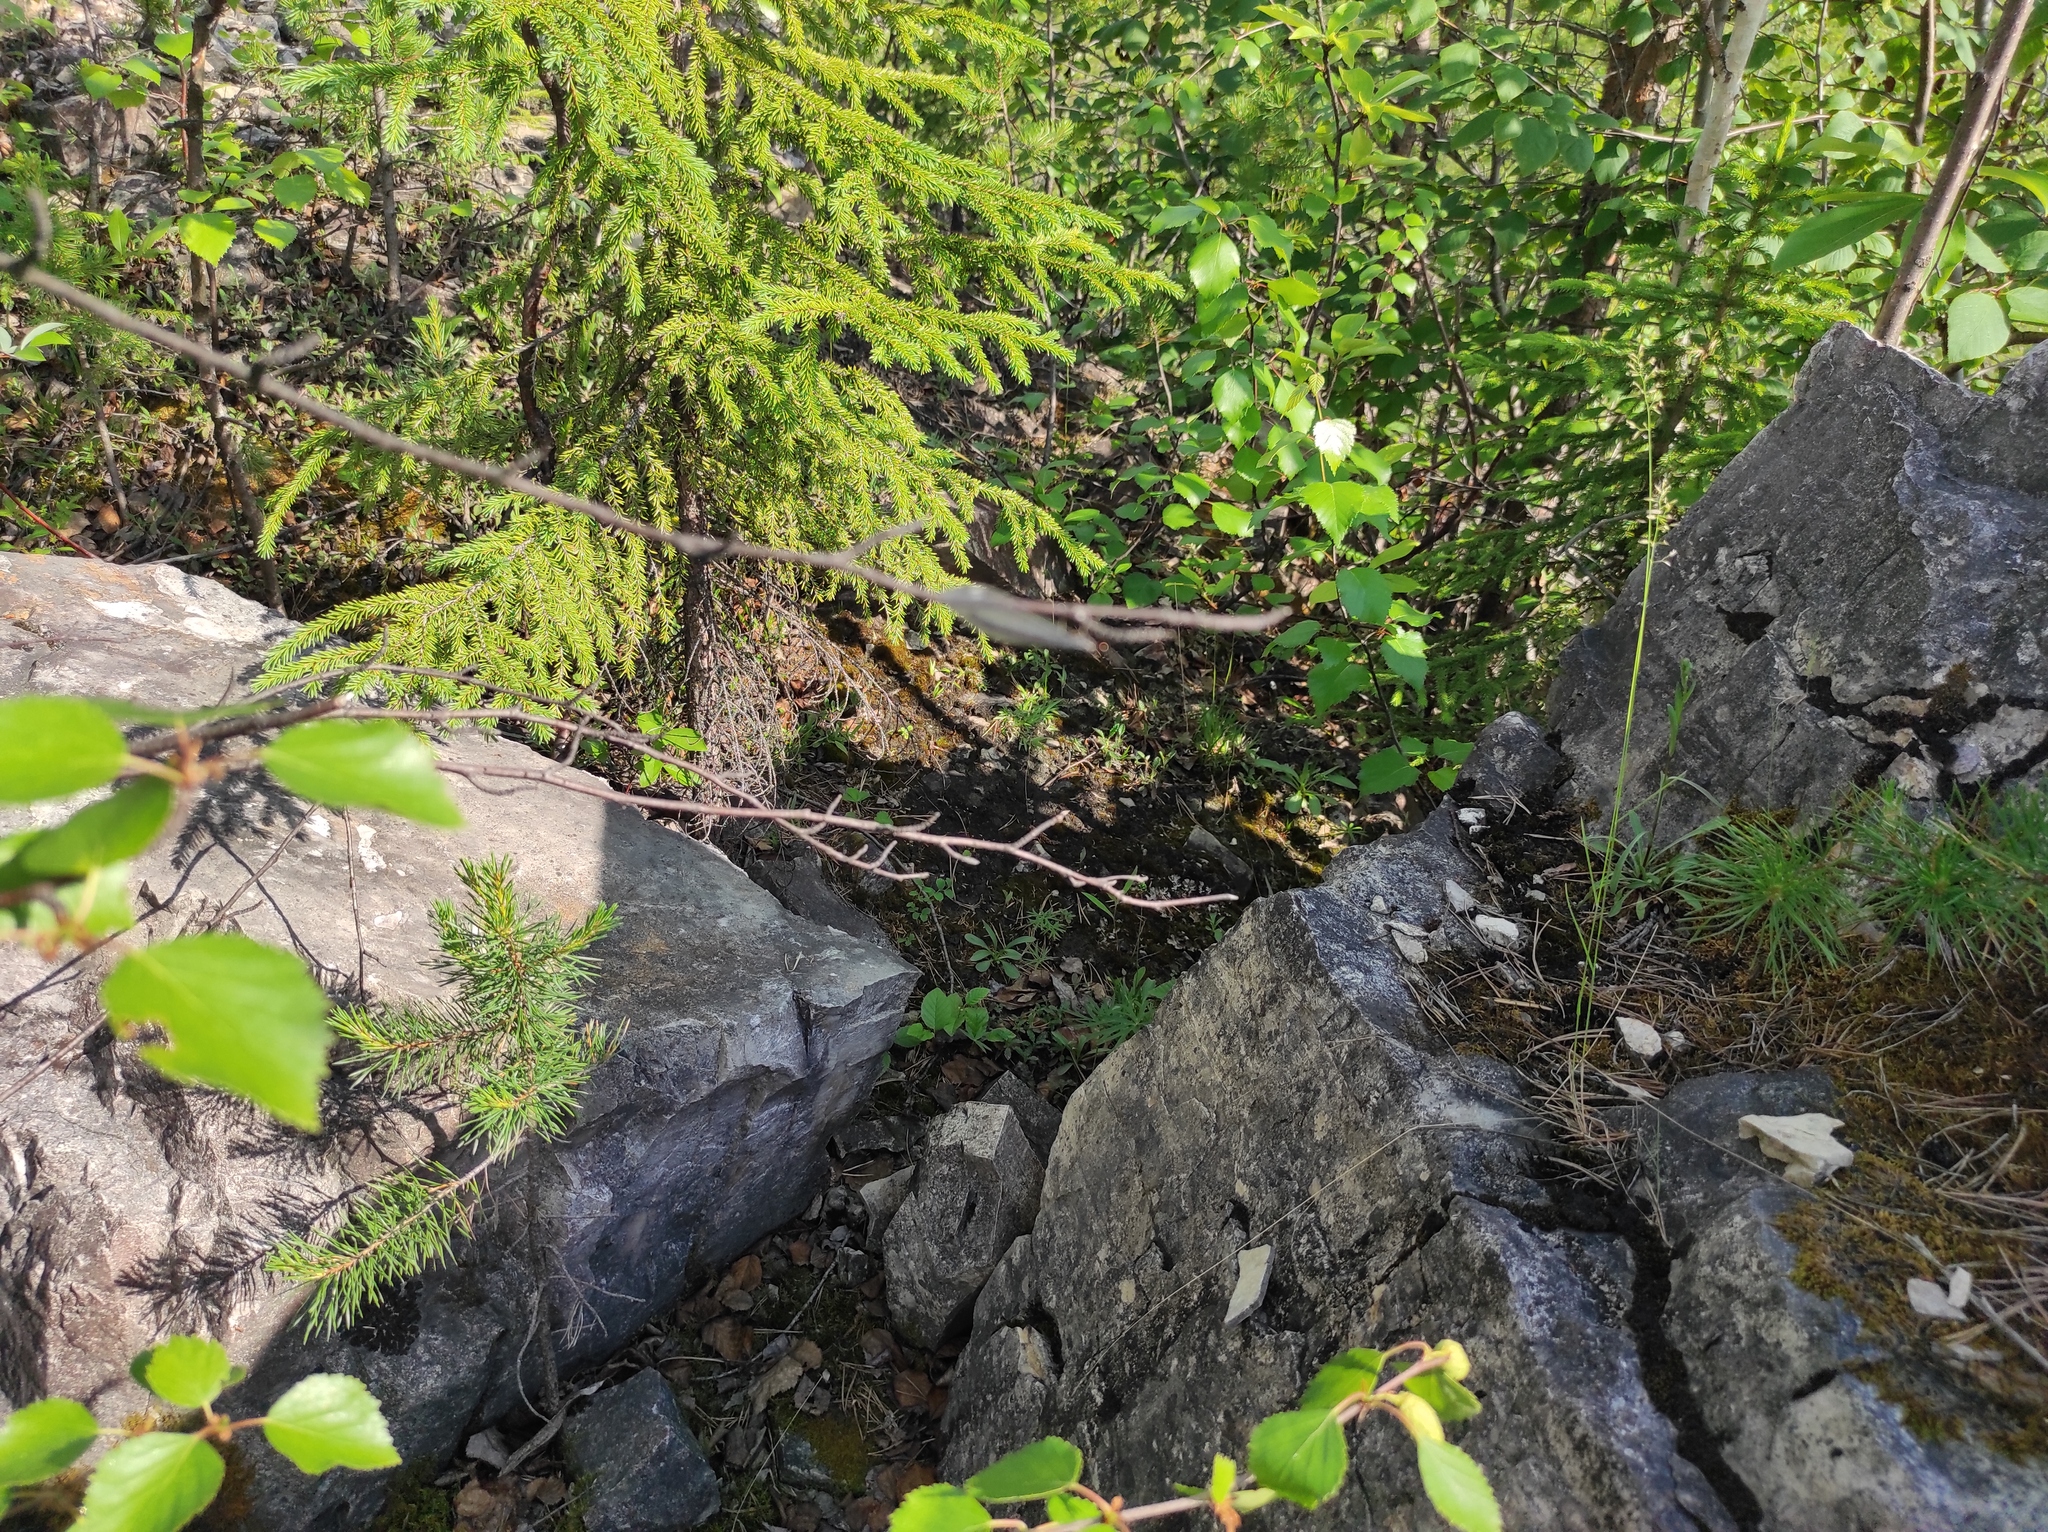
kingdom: Plantae
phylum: Tracheophyta
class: Pinopsida
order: Pinales
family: Pinaceae
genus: Picea
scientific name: Picea obovata
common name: Siberian spruce
